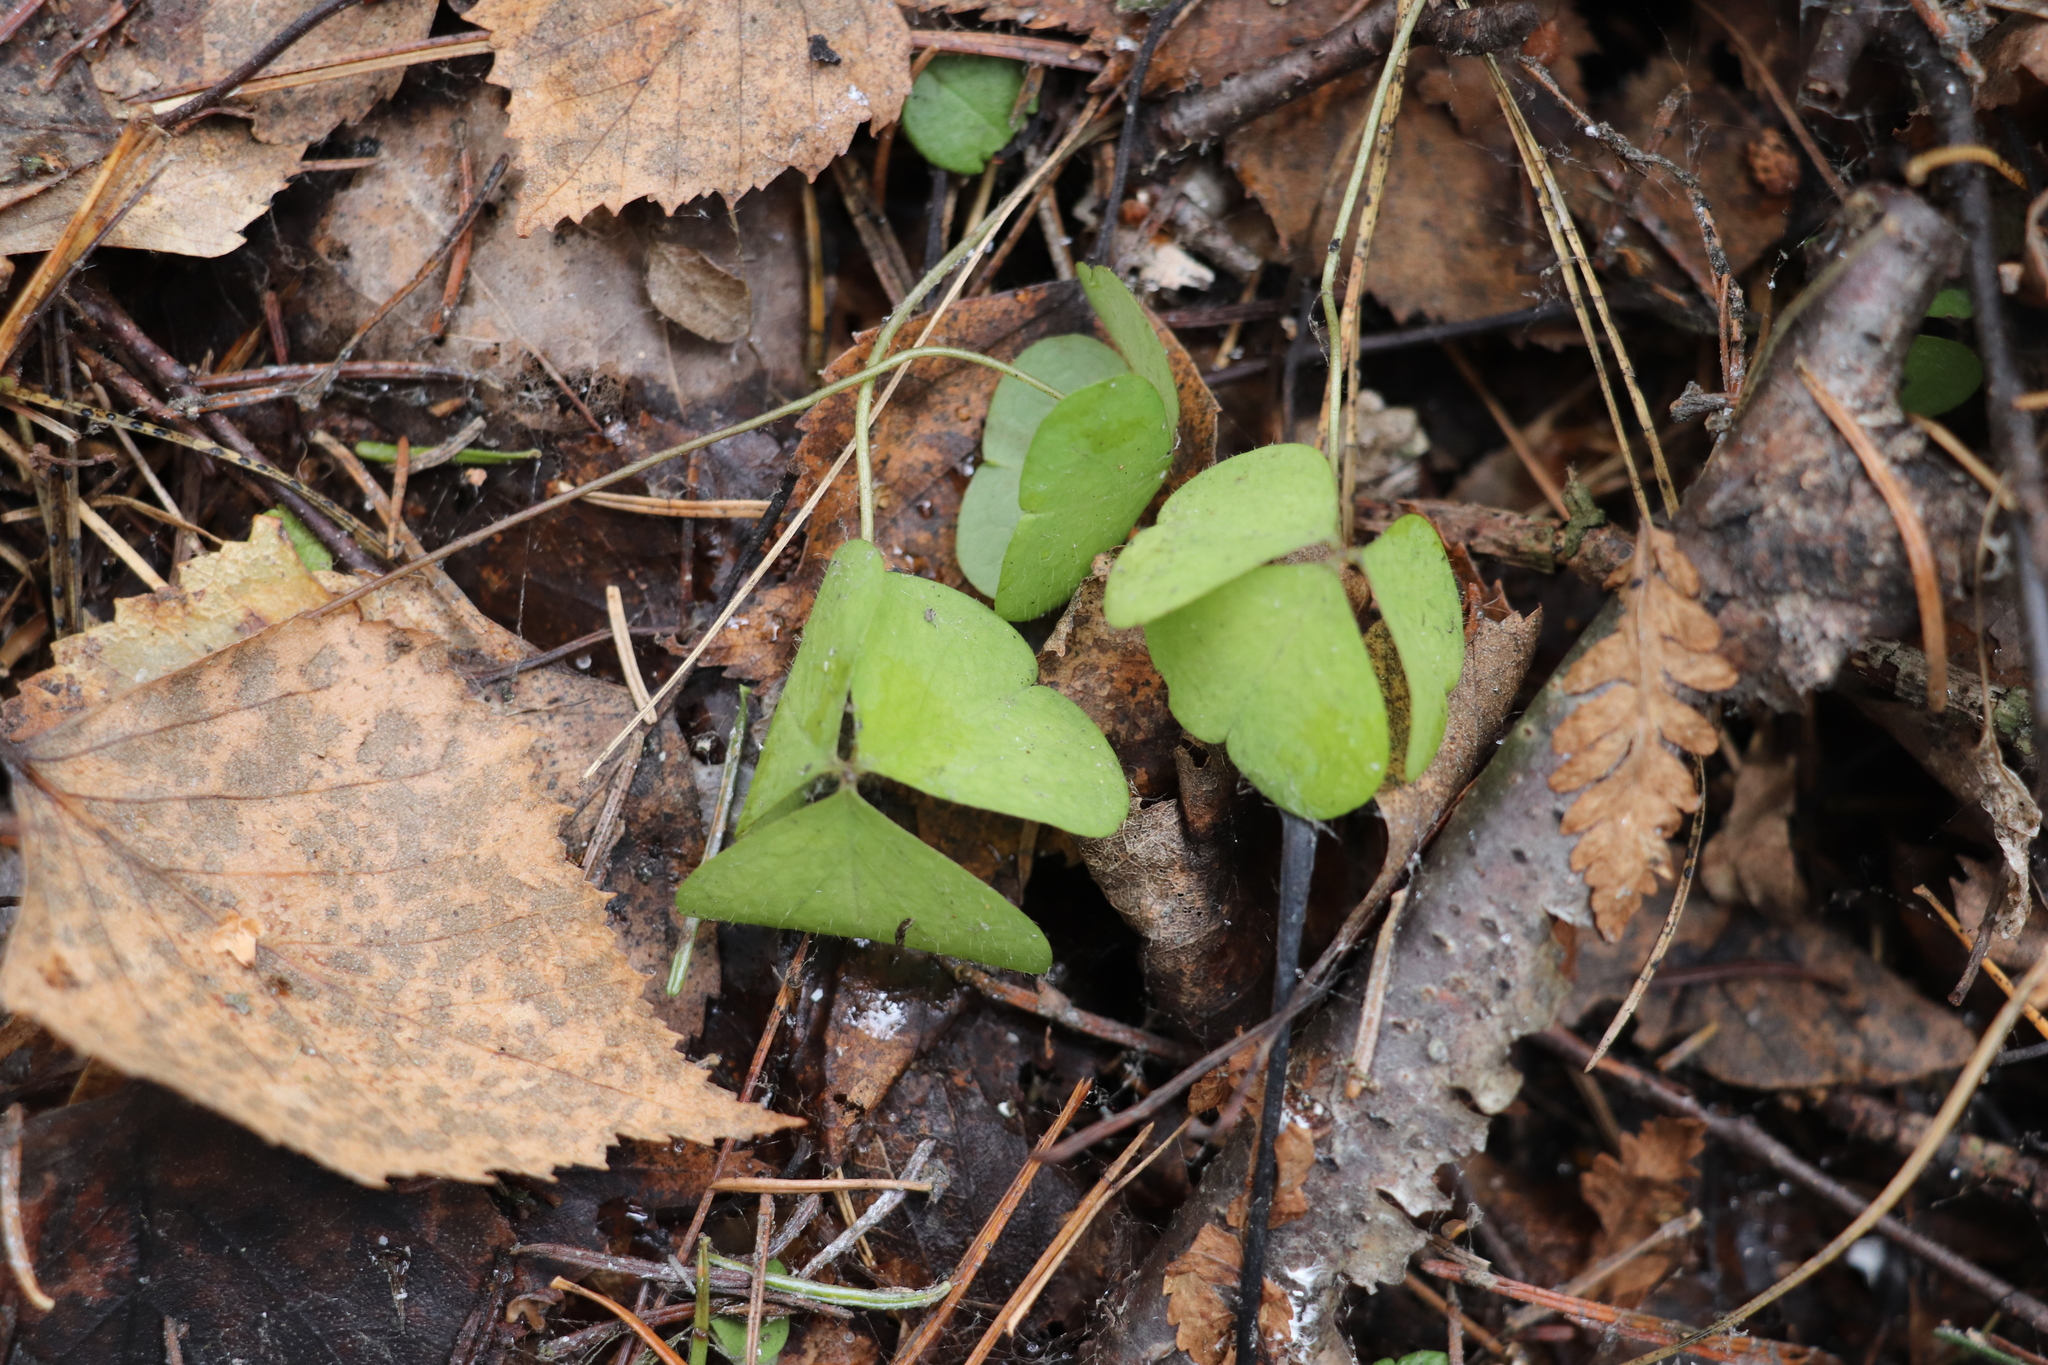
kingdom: Plantae
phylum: Tracheophyta
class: Magnoliopsida
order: Oxalidales
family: Oxalidaceae
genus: Oxalis
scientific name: Oxalis acetosella
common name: Wood-sorrel
